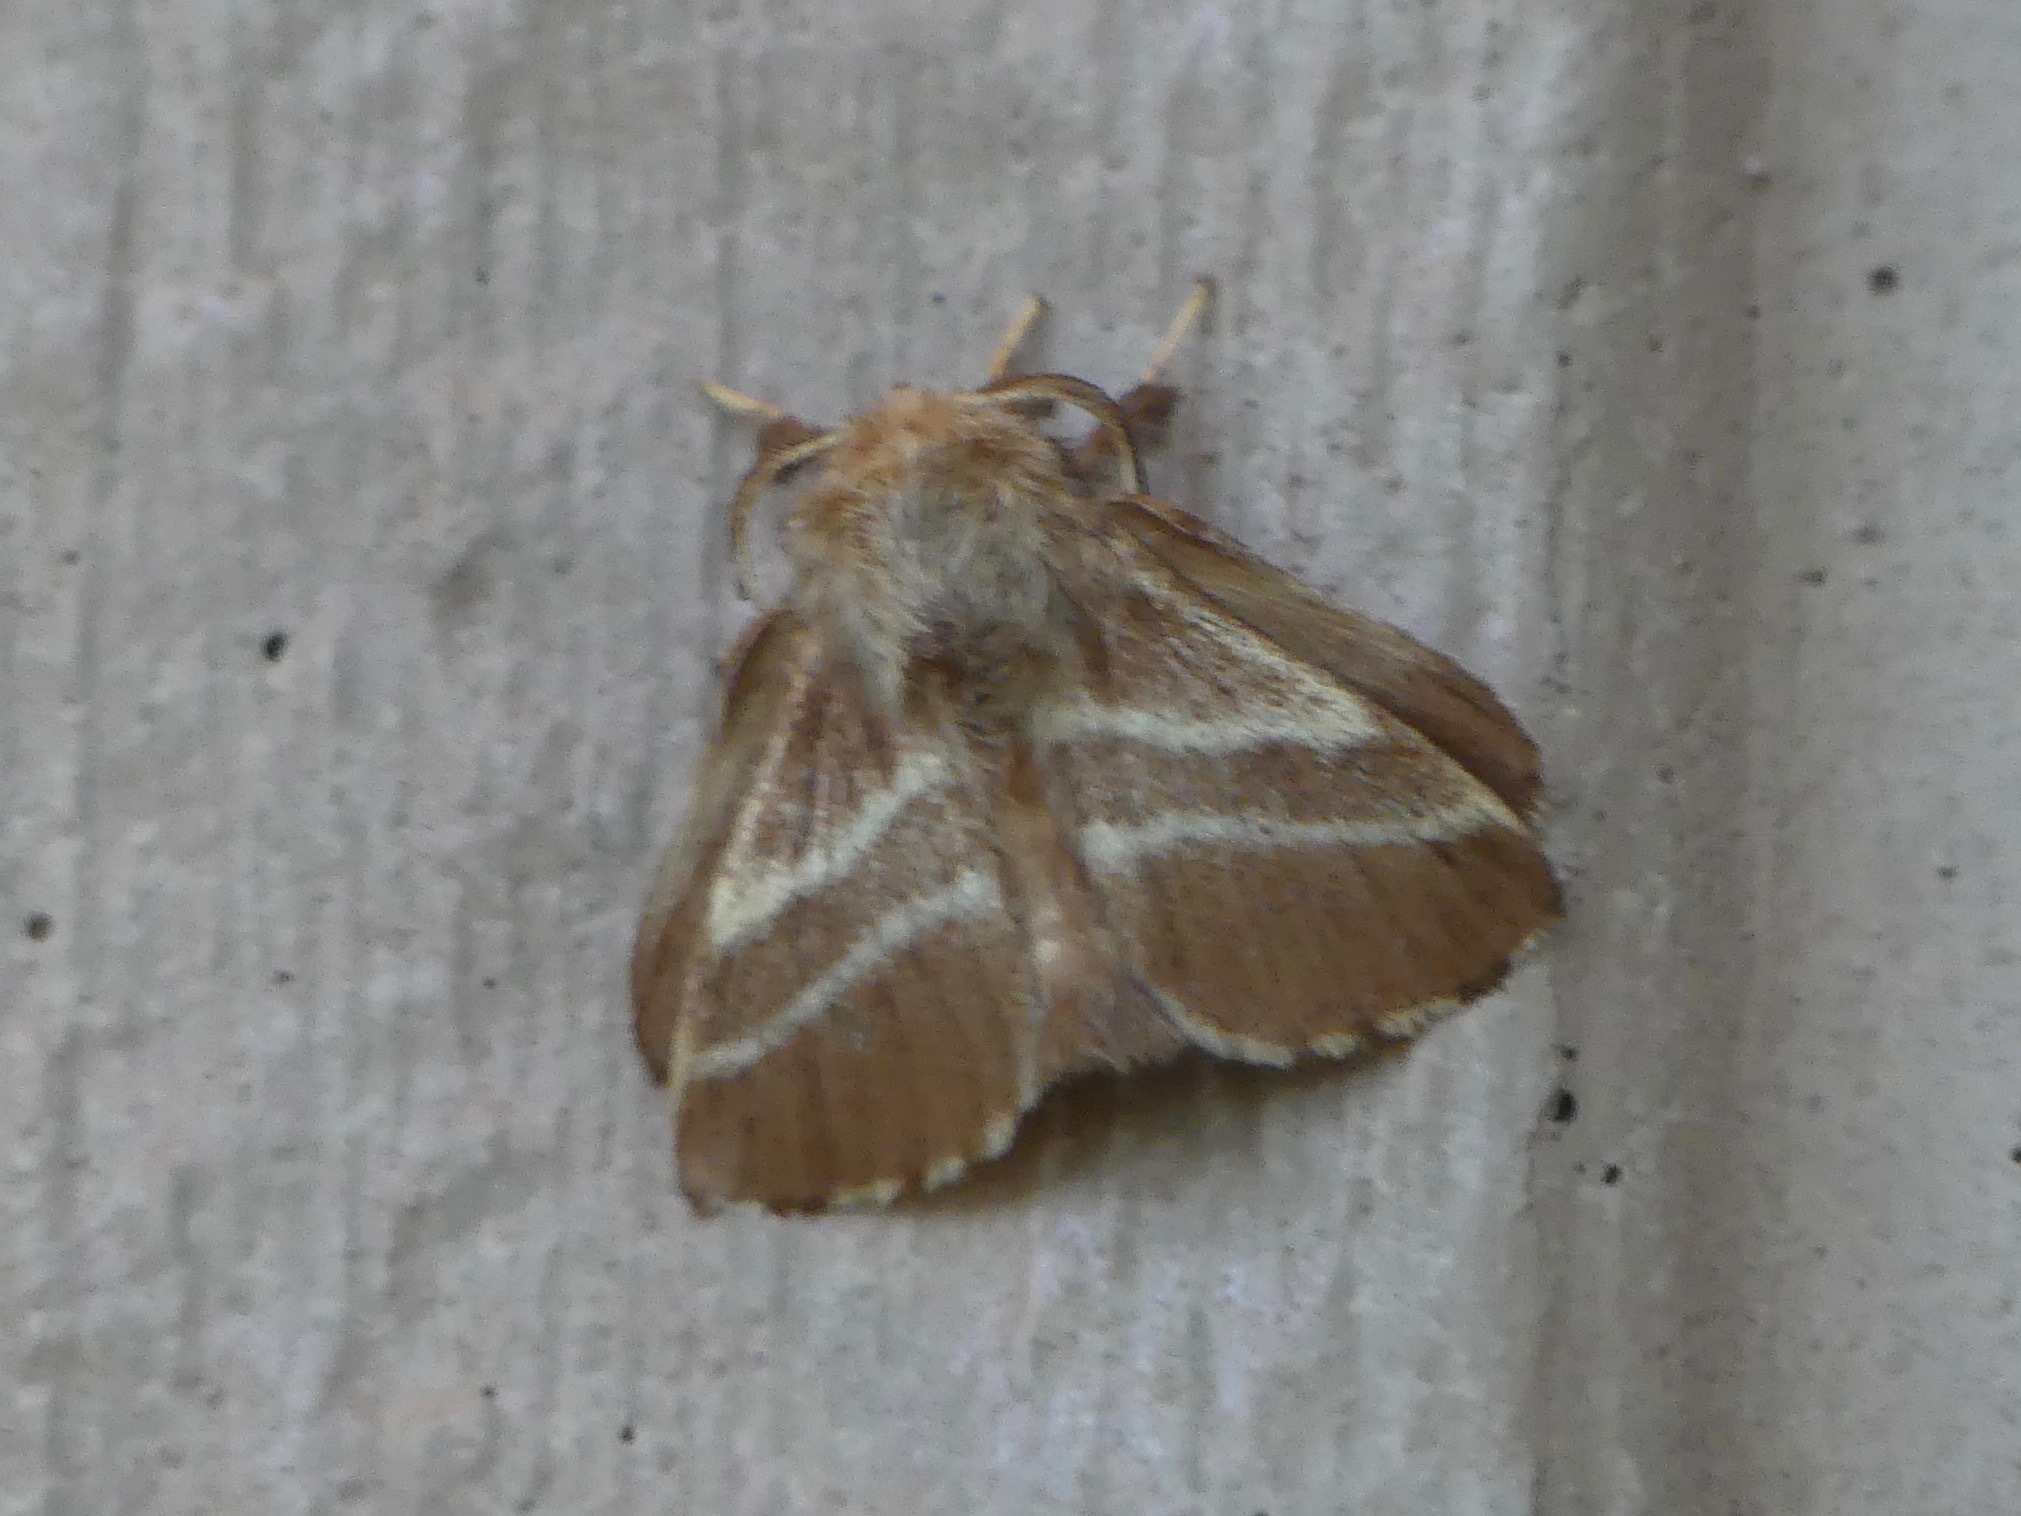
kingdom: Animalia
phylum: Arthropoda
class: Insecta
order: Lepidoptera
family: Lasiocampidae
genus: Malacosoma
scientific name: Malacosoma americana
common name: Eastern tent caterpillar moth
